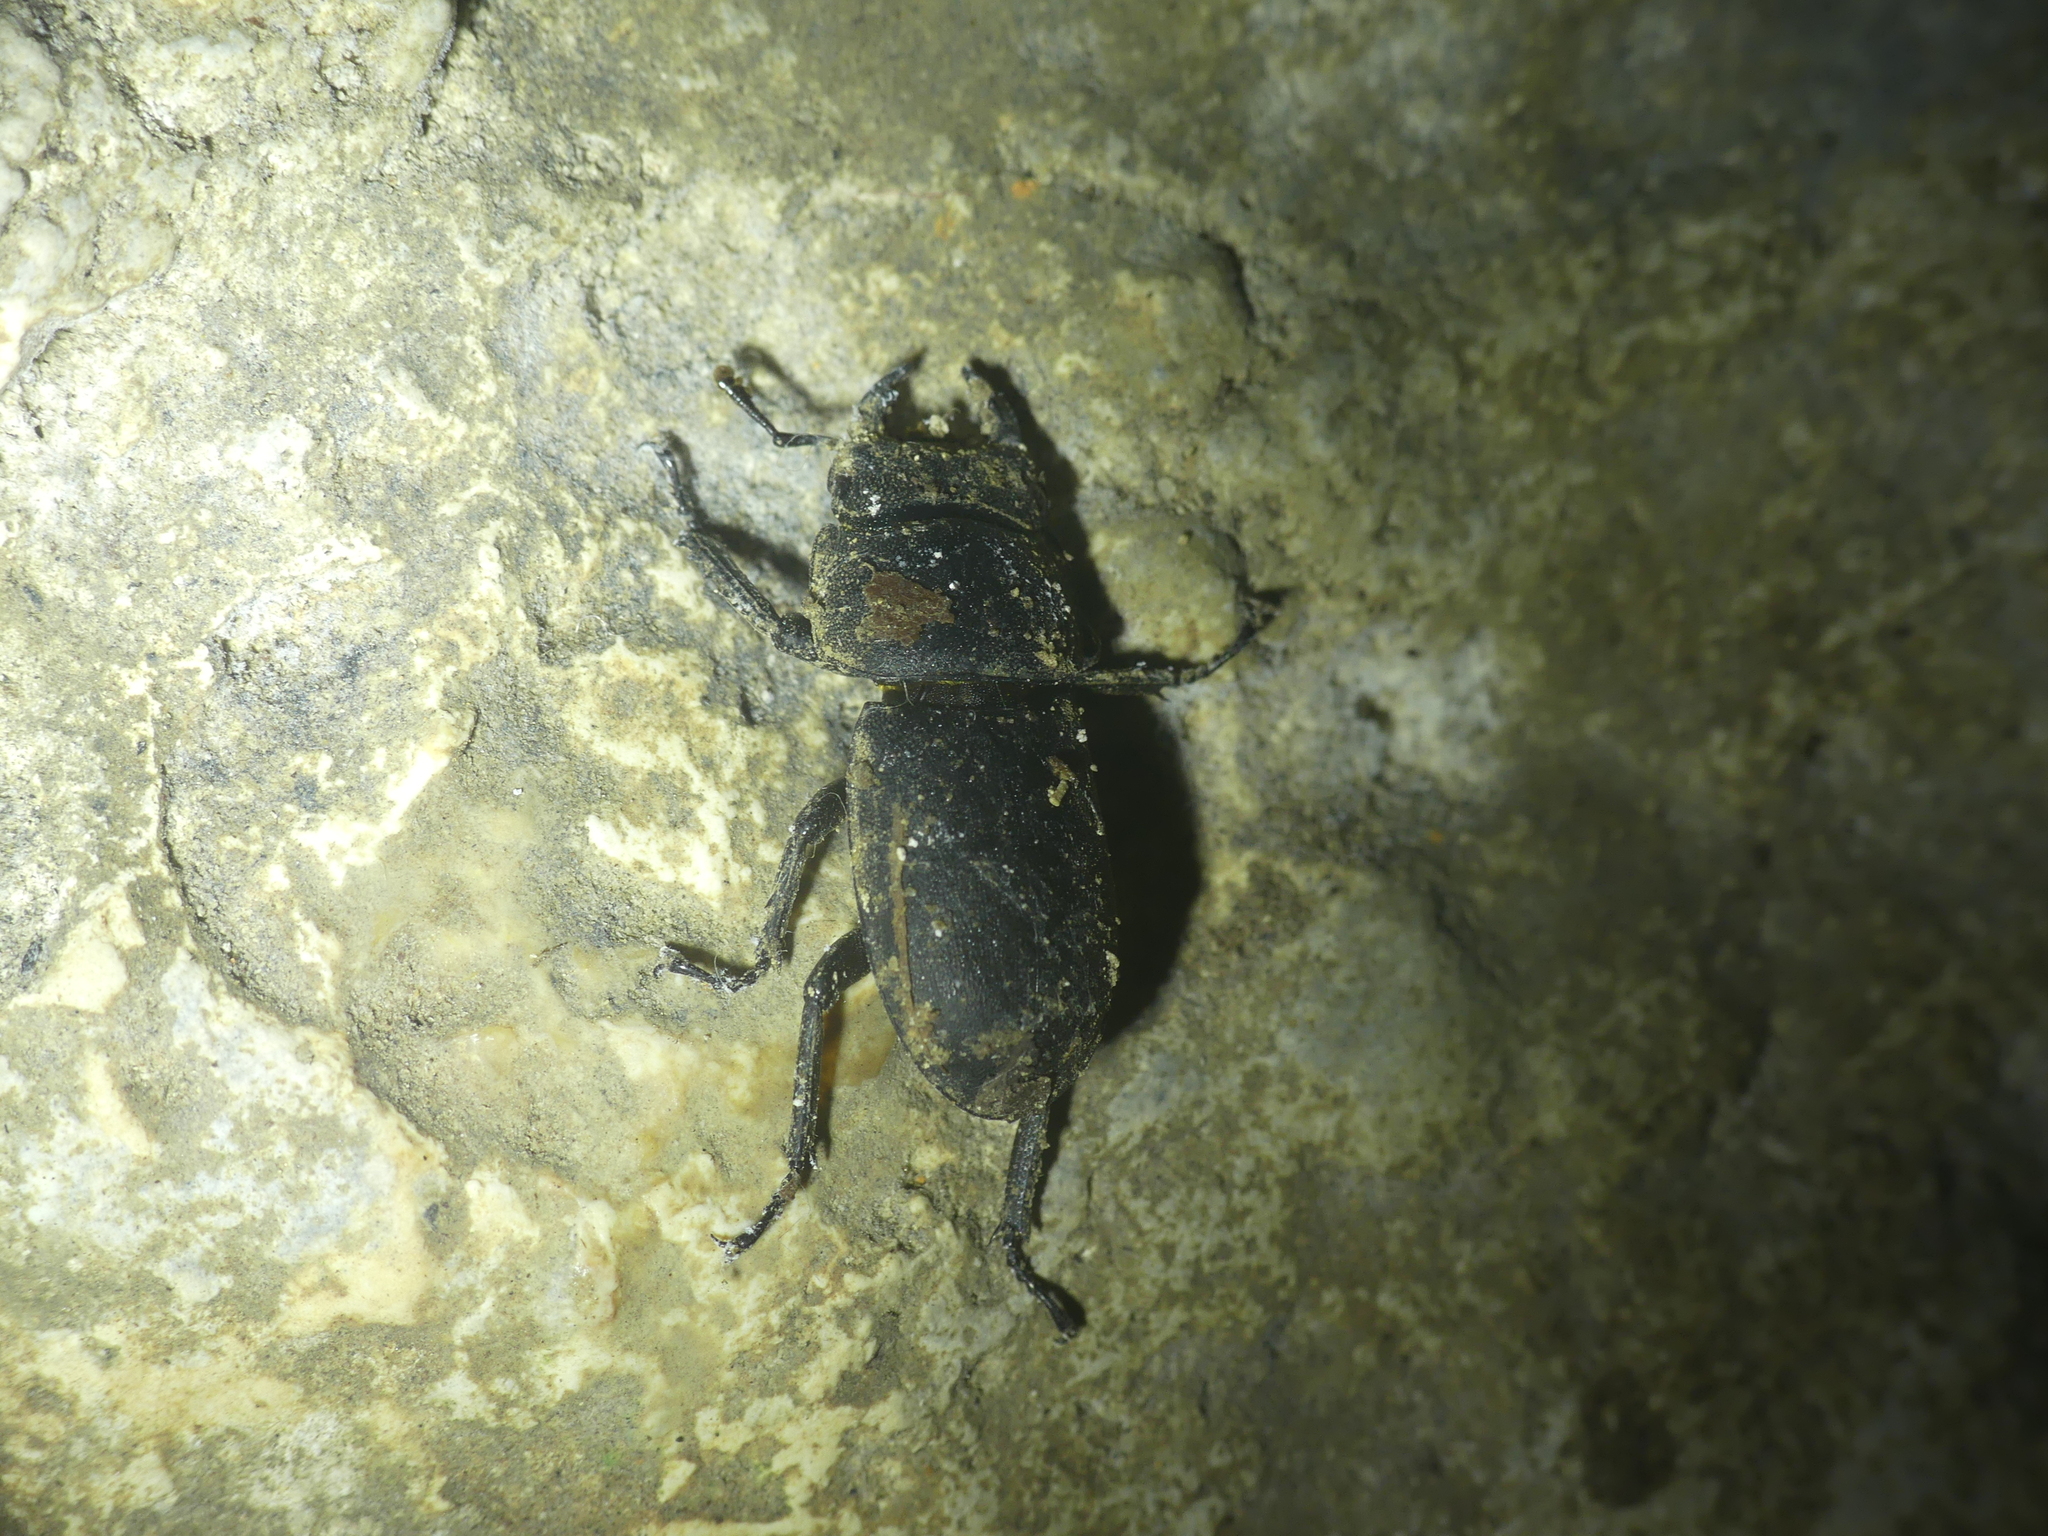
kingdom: Animalia
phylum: Arthropoda
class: Insecta
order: Coleoptera
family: Lucanidae
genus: Dorcus
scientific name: Dorcus parallelipipedus
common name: Lesser stag beetle
